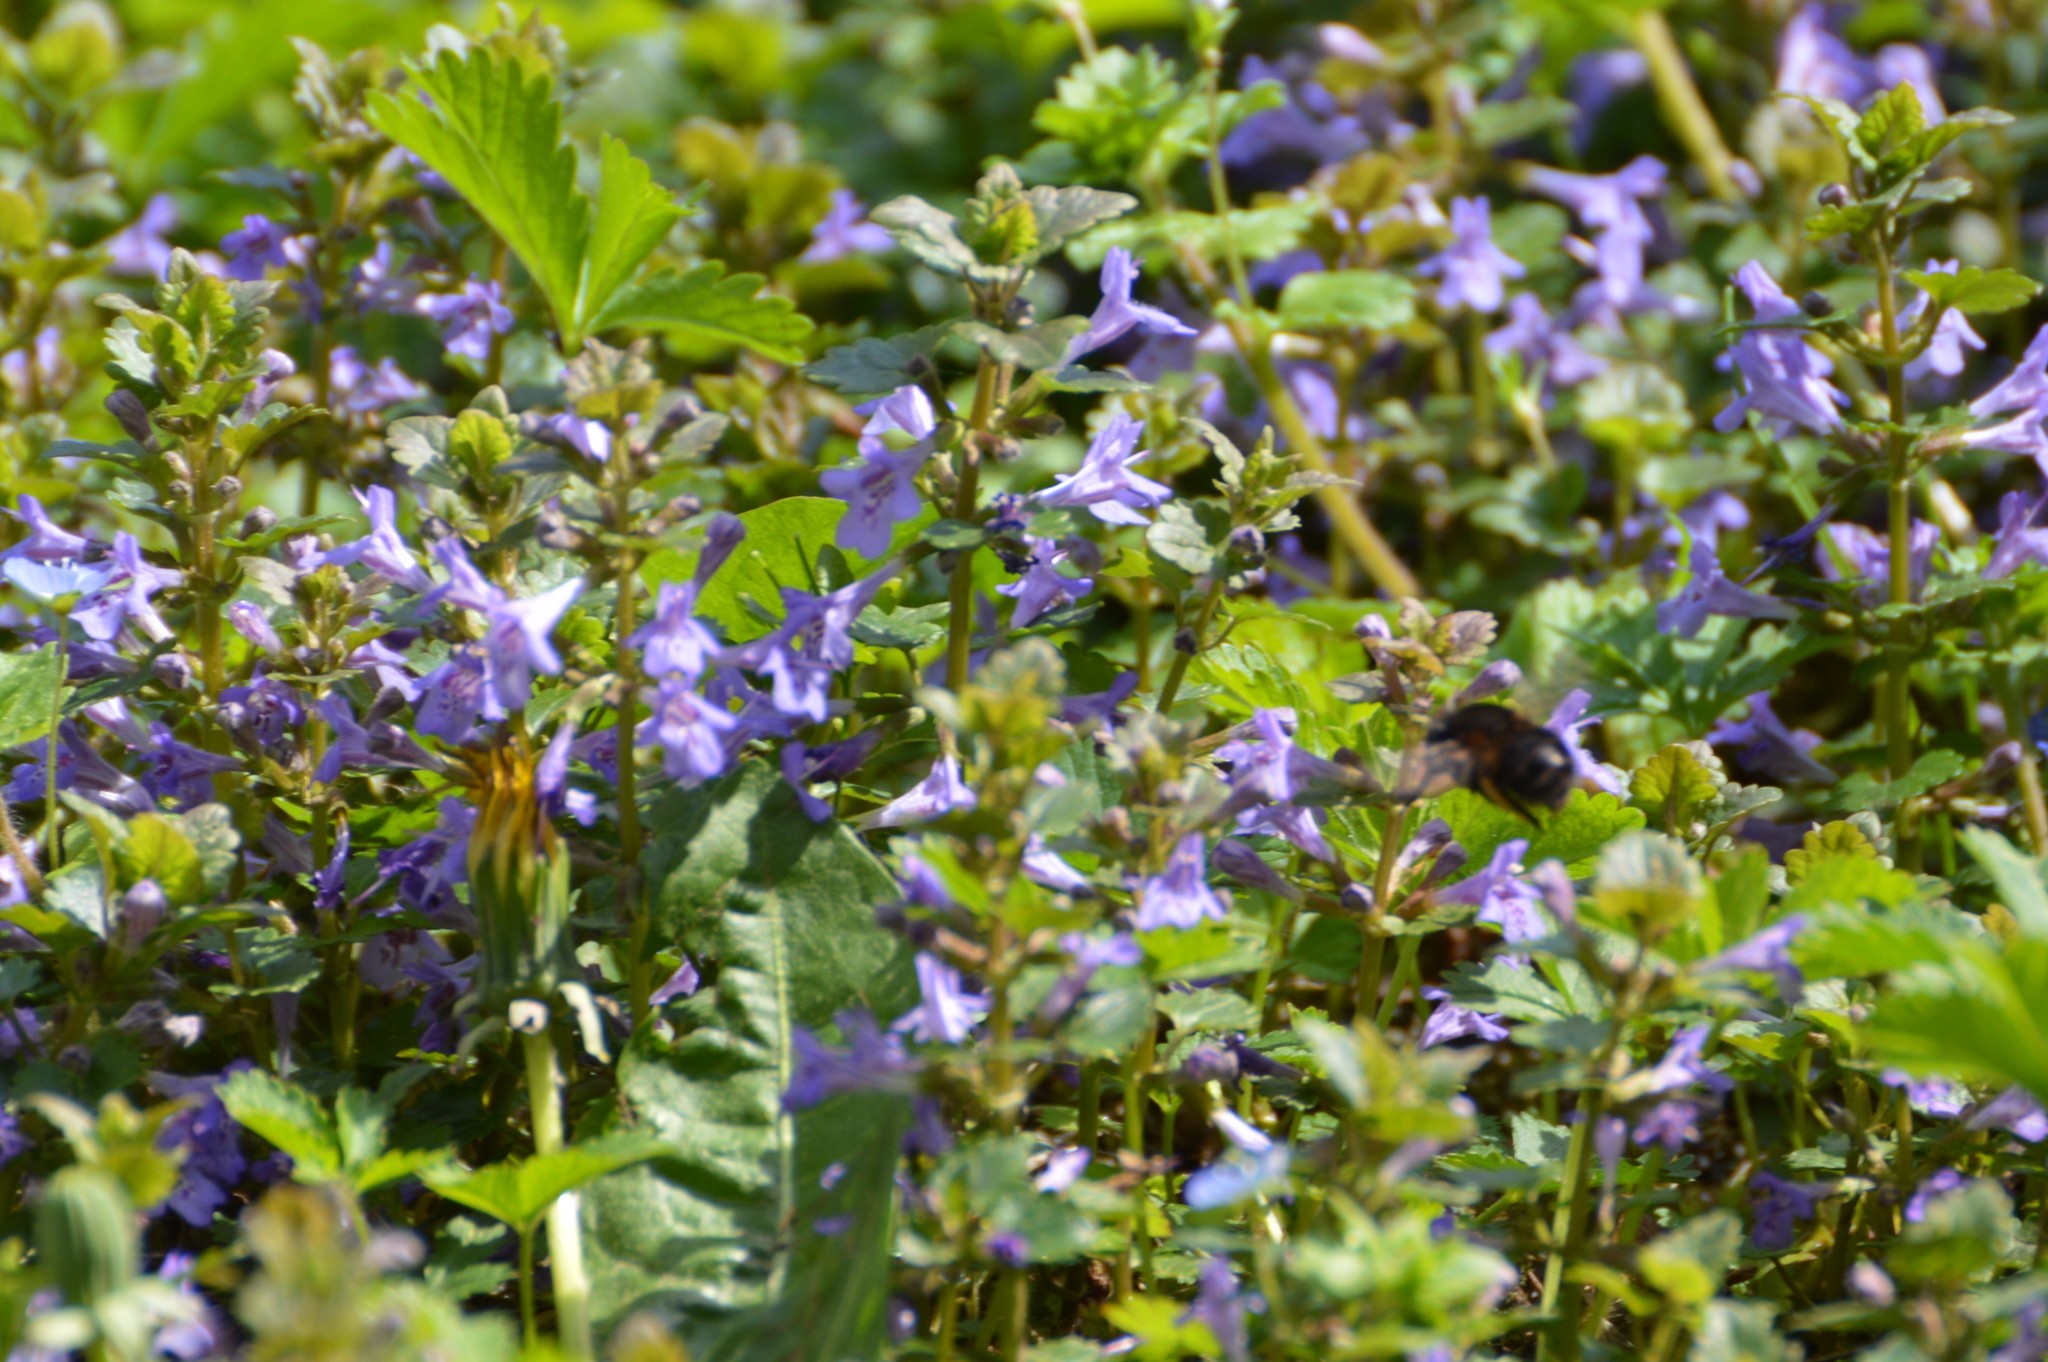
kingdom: Animalia
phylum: Arthropoda
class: Insecta
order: Hymenoptera
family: Apidae
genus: Anthophora
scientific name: Anthophora
